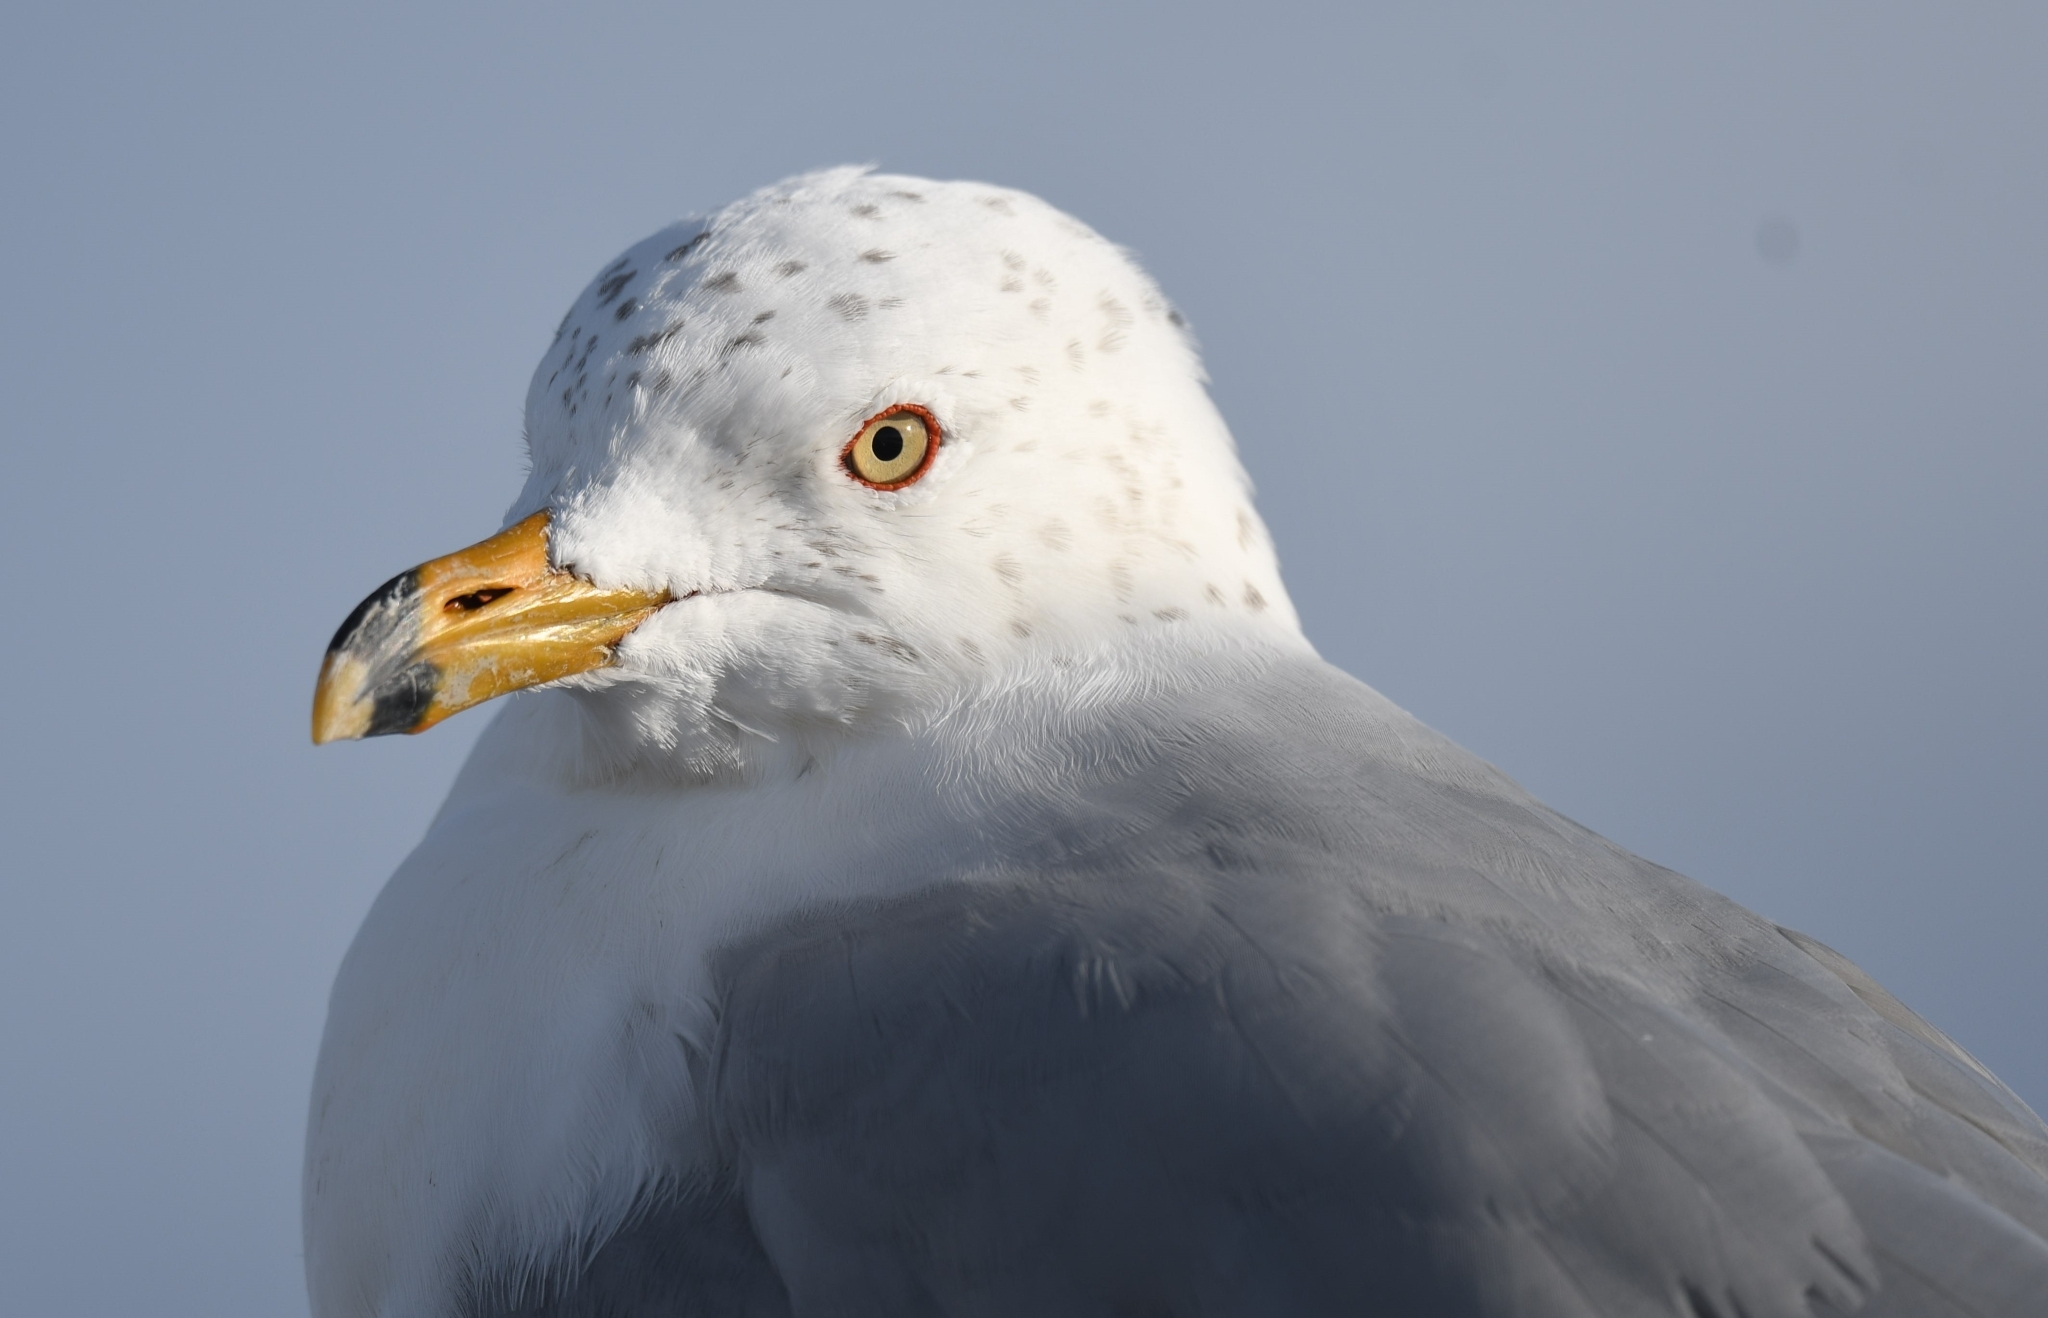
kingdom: Animalia
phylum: Chordata
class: Aves
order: Charadriiformes
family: Laridae
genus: Larus
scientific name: Larus delawarensis
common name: Ring-billed gull
